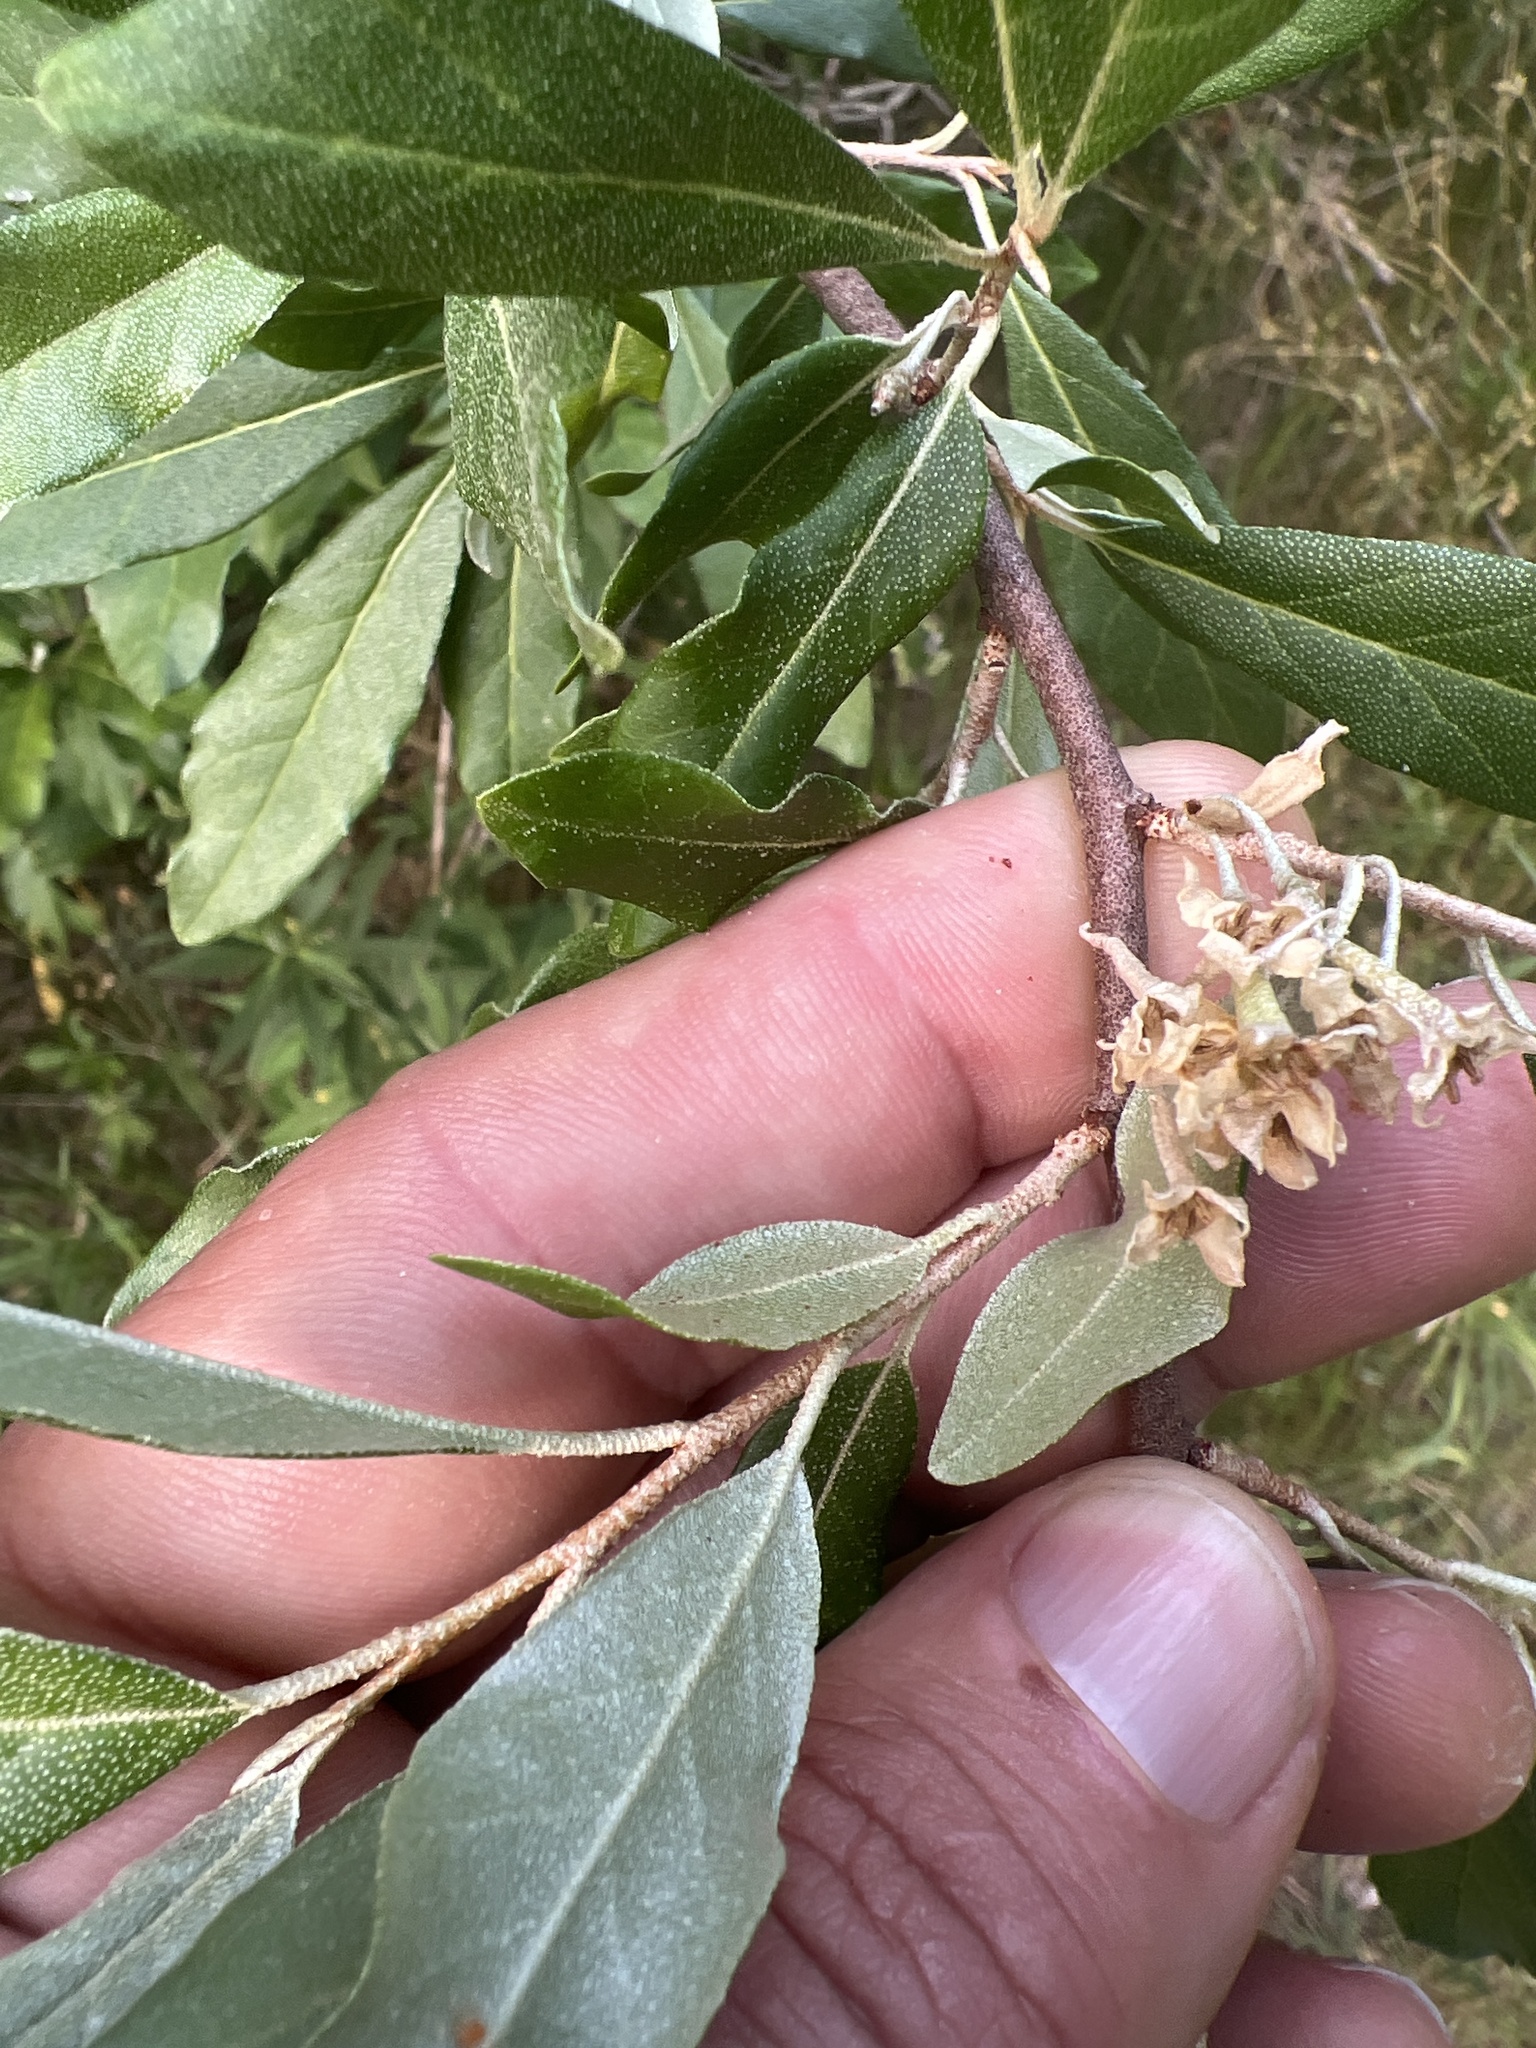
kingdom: Plantae
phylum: Tracheophyta
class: Magnoliopsida
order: Rosales
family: Elaeagnaceae
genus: Elaeagnus
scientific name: Elaeagnus umbellata
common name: Autumn olive
